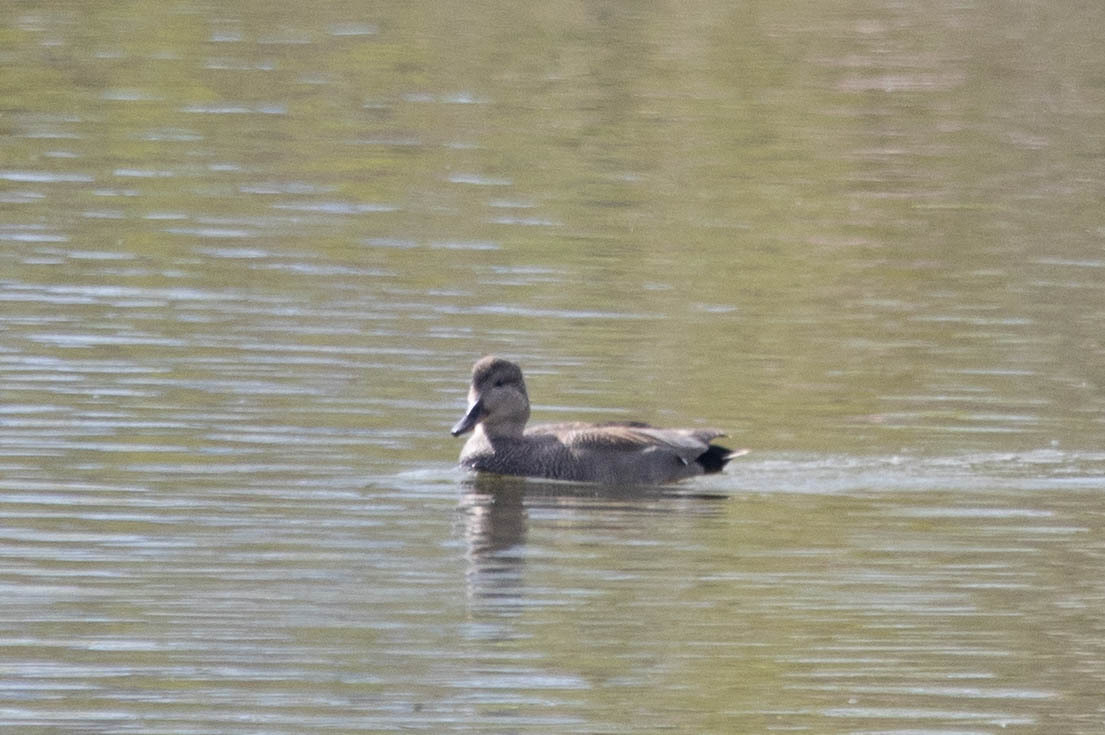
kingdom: Animalia
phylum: Chordata
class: Aves
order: Anseriformes
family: Anatidae
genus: Mareca
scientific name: Mareca strepera
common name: Gadwall
